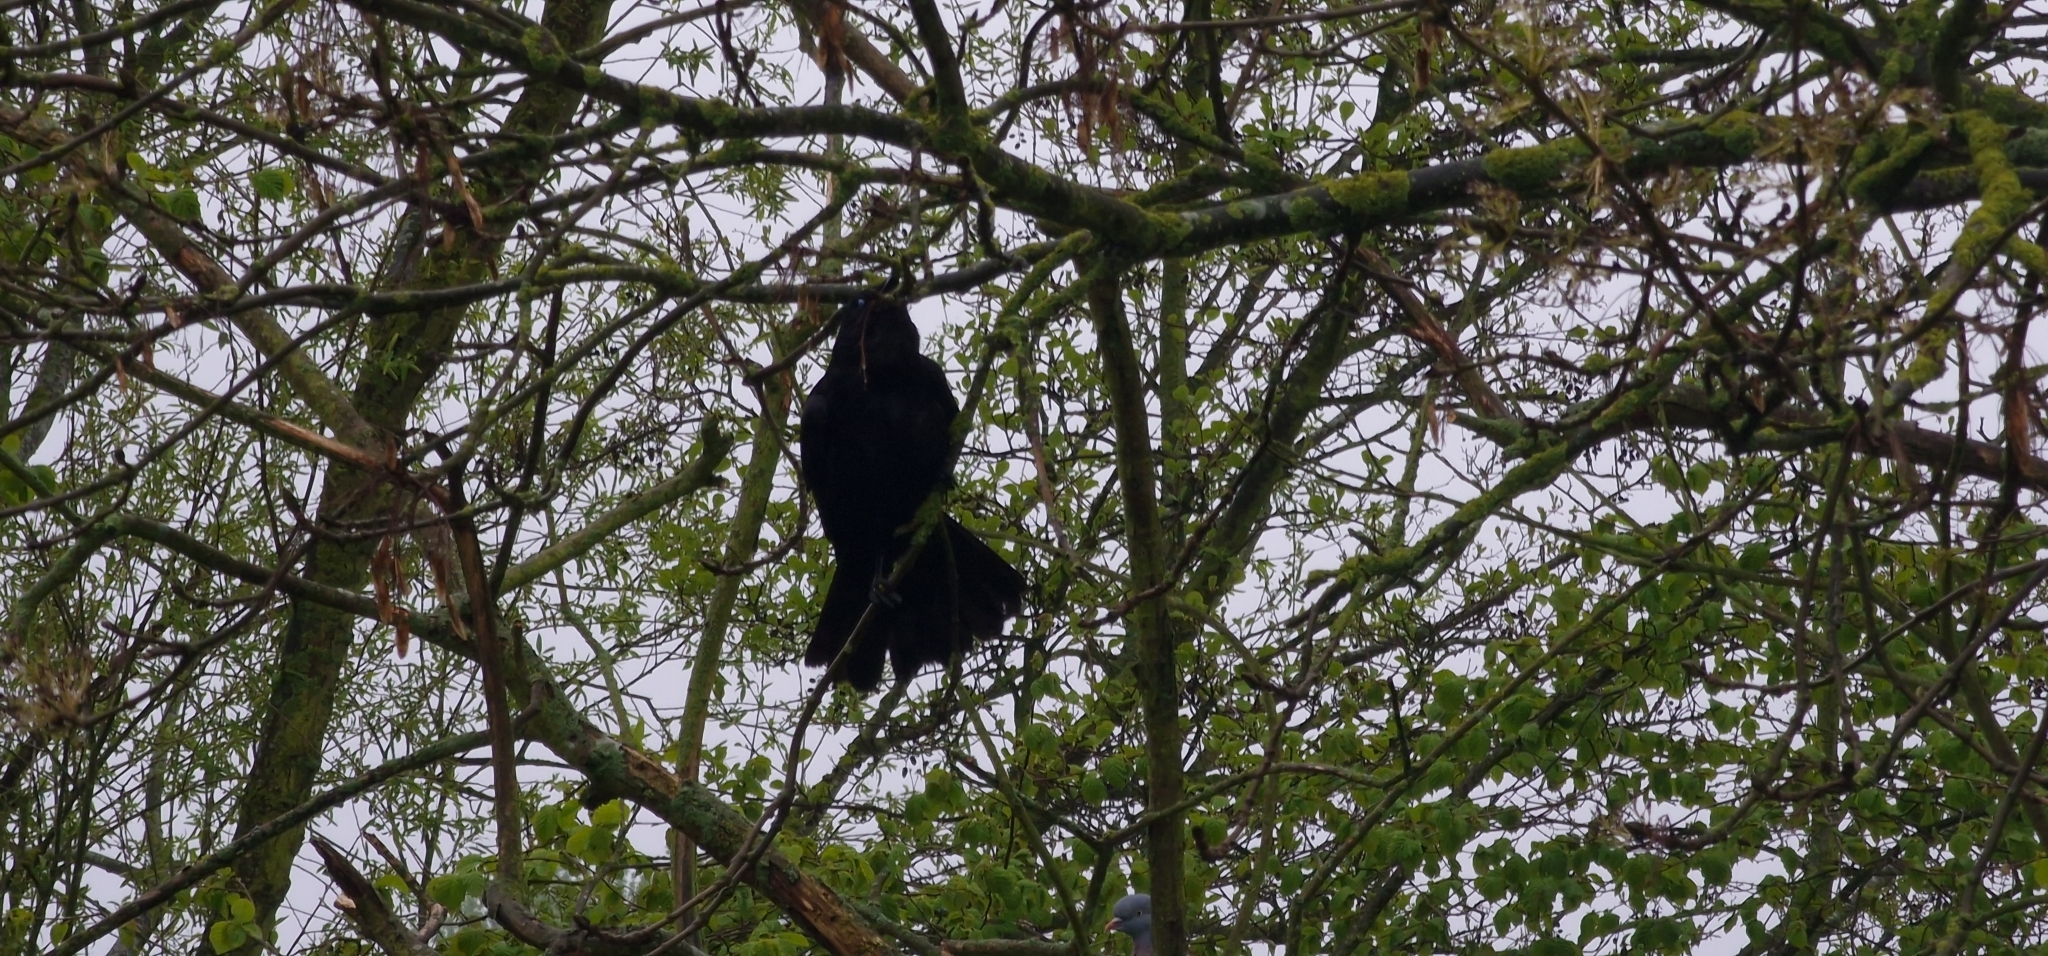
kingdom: Animalia
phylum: Chordata
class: Aves
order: Passeriformes
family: Corvidae
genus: Corvus
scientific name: Corvus corone
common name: Carrion crow
